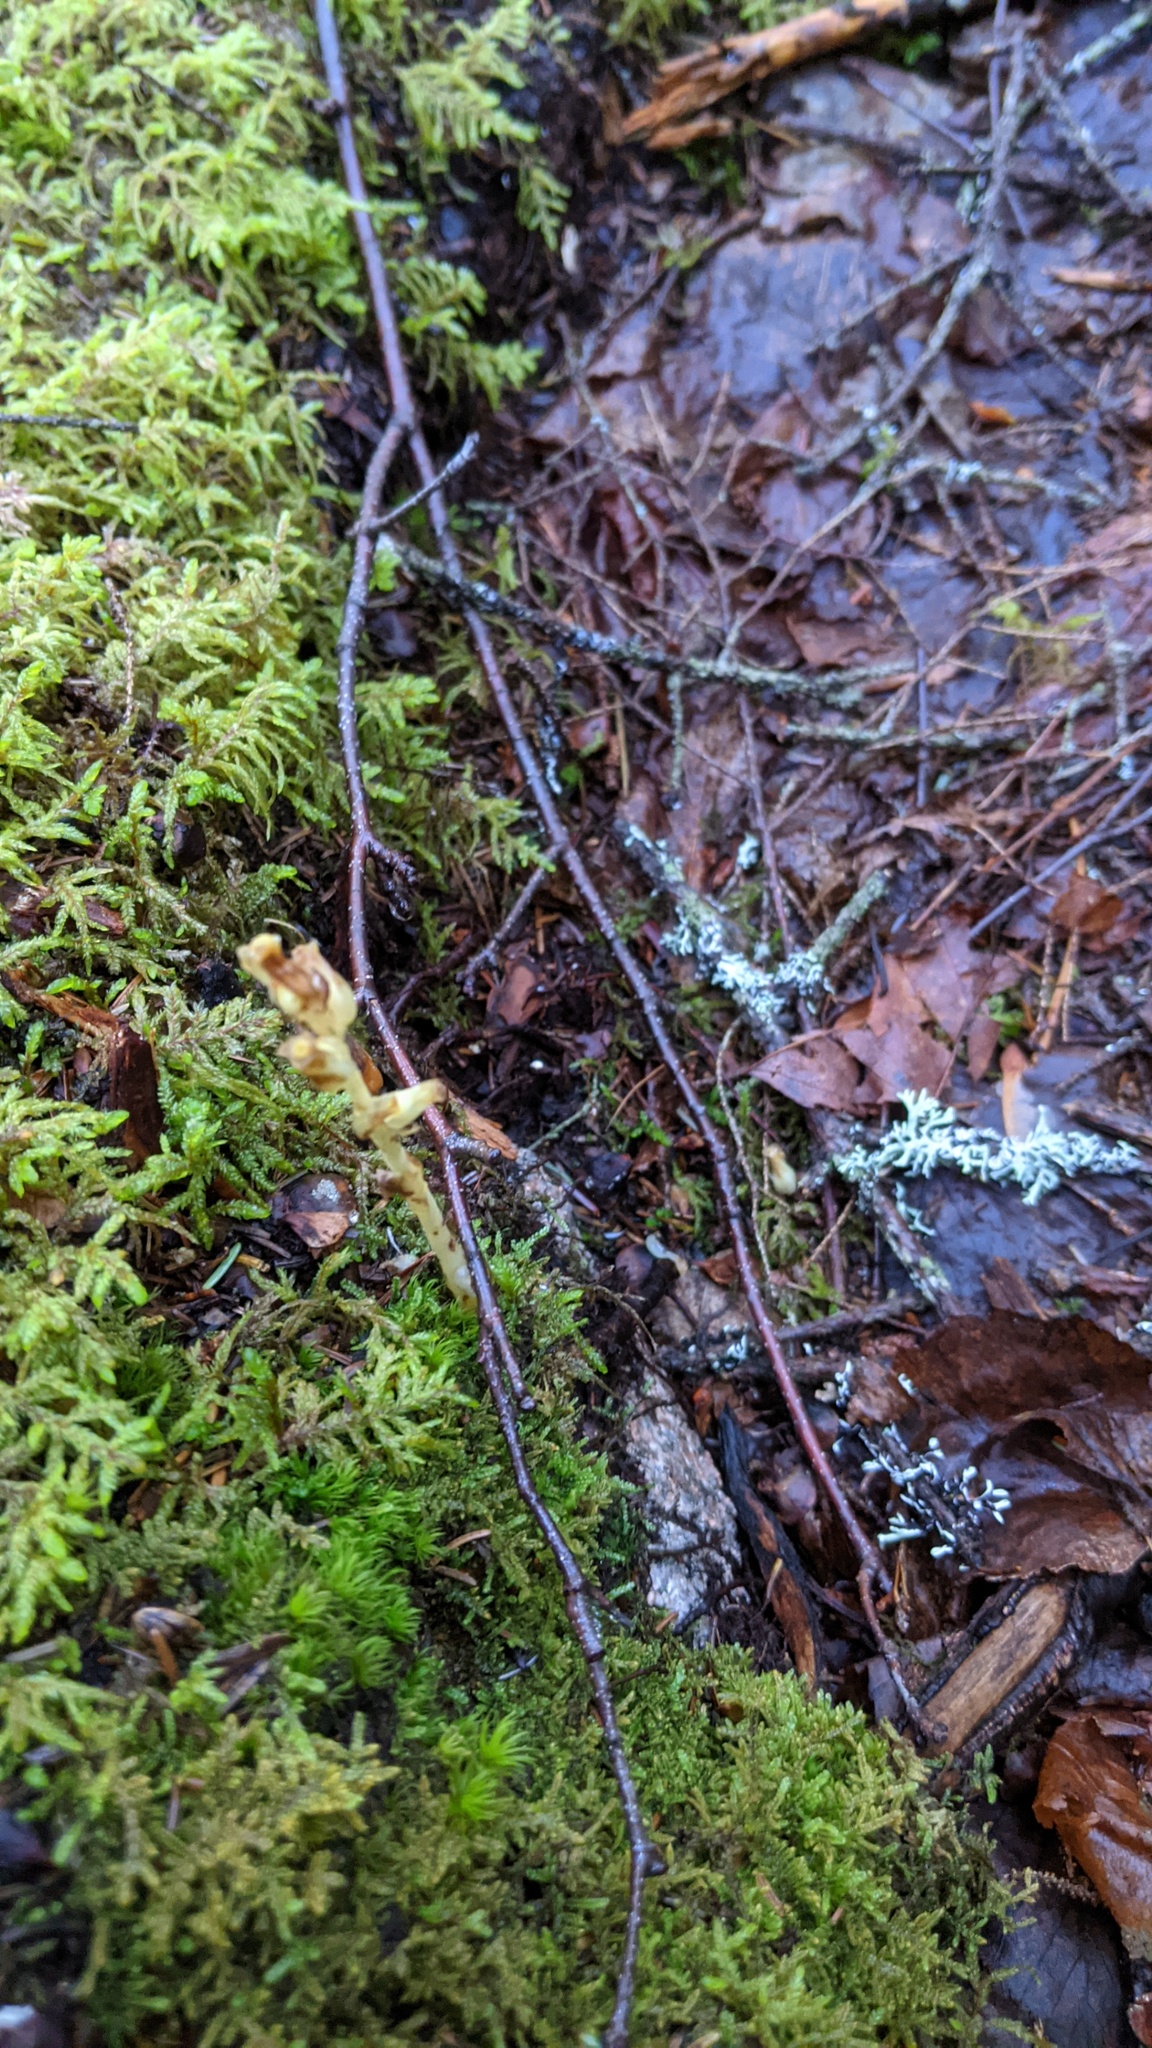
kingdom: Plantae
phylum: Tracheophyta
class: Magnoliopsida
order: Ericales
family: Ericaceae
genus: Hypopitys
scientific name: Hypopitys monotropa
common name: Yellow bird's-nest
